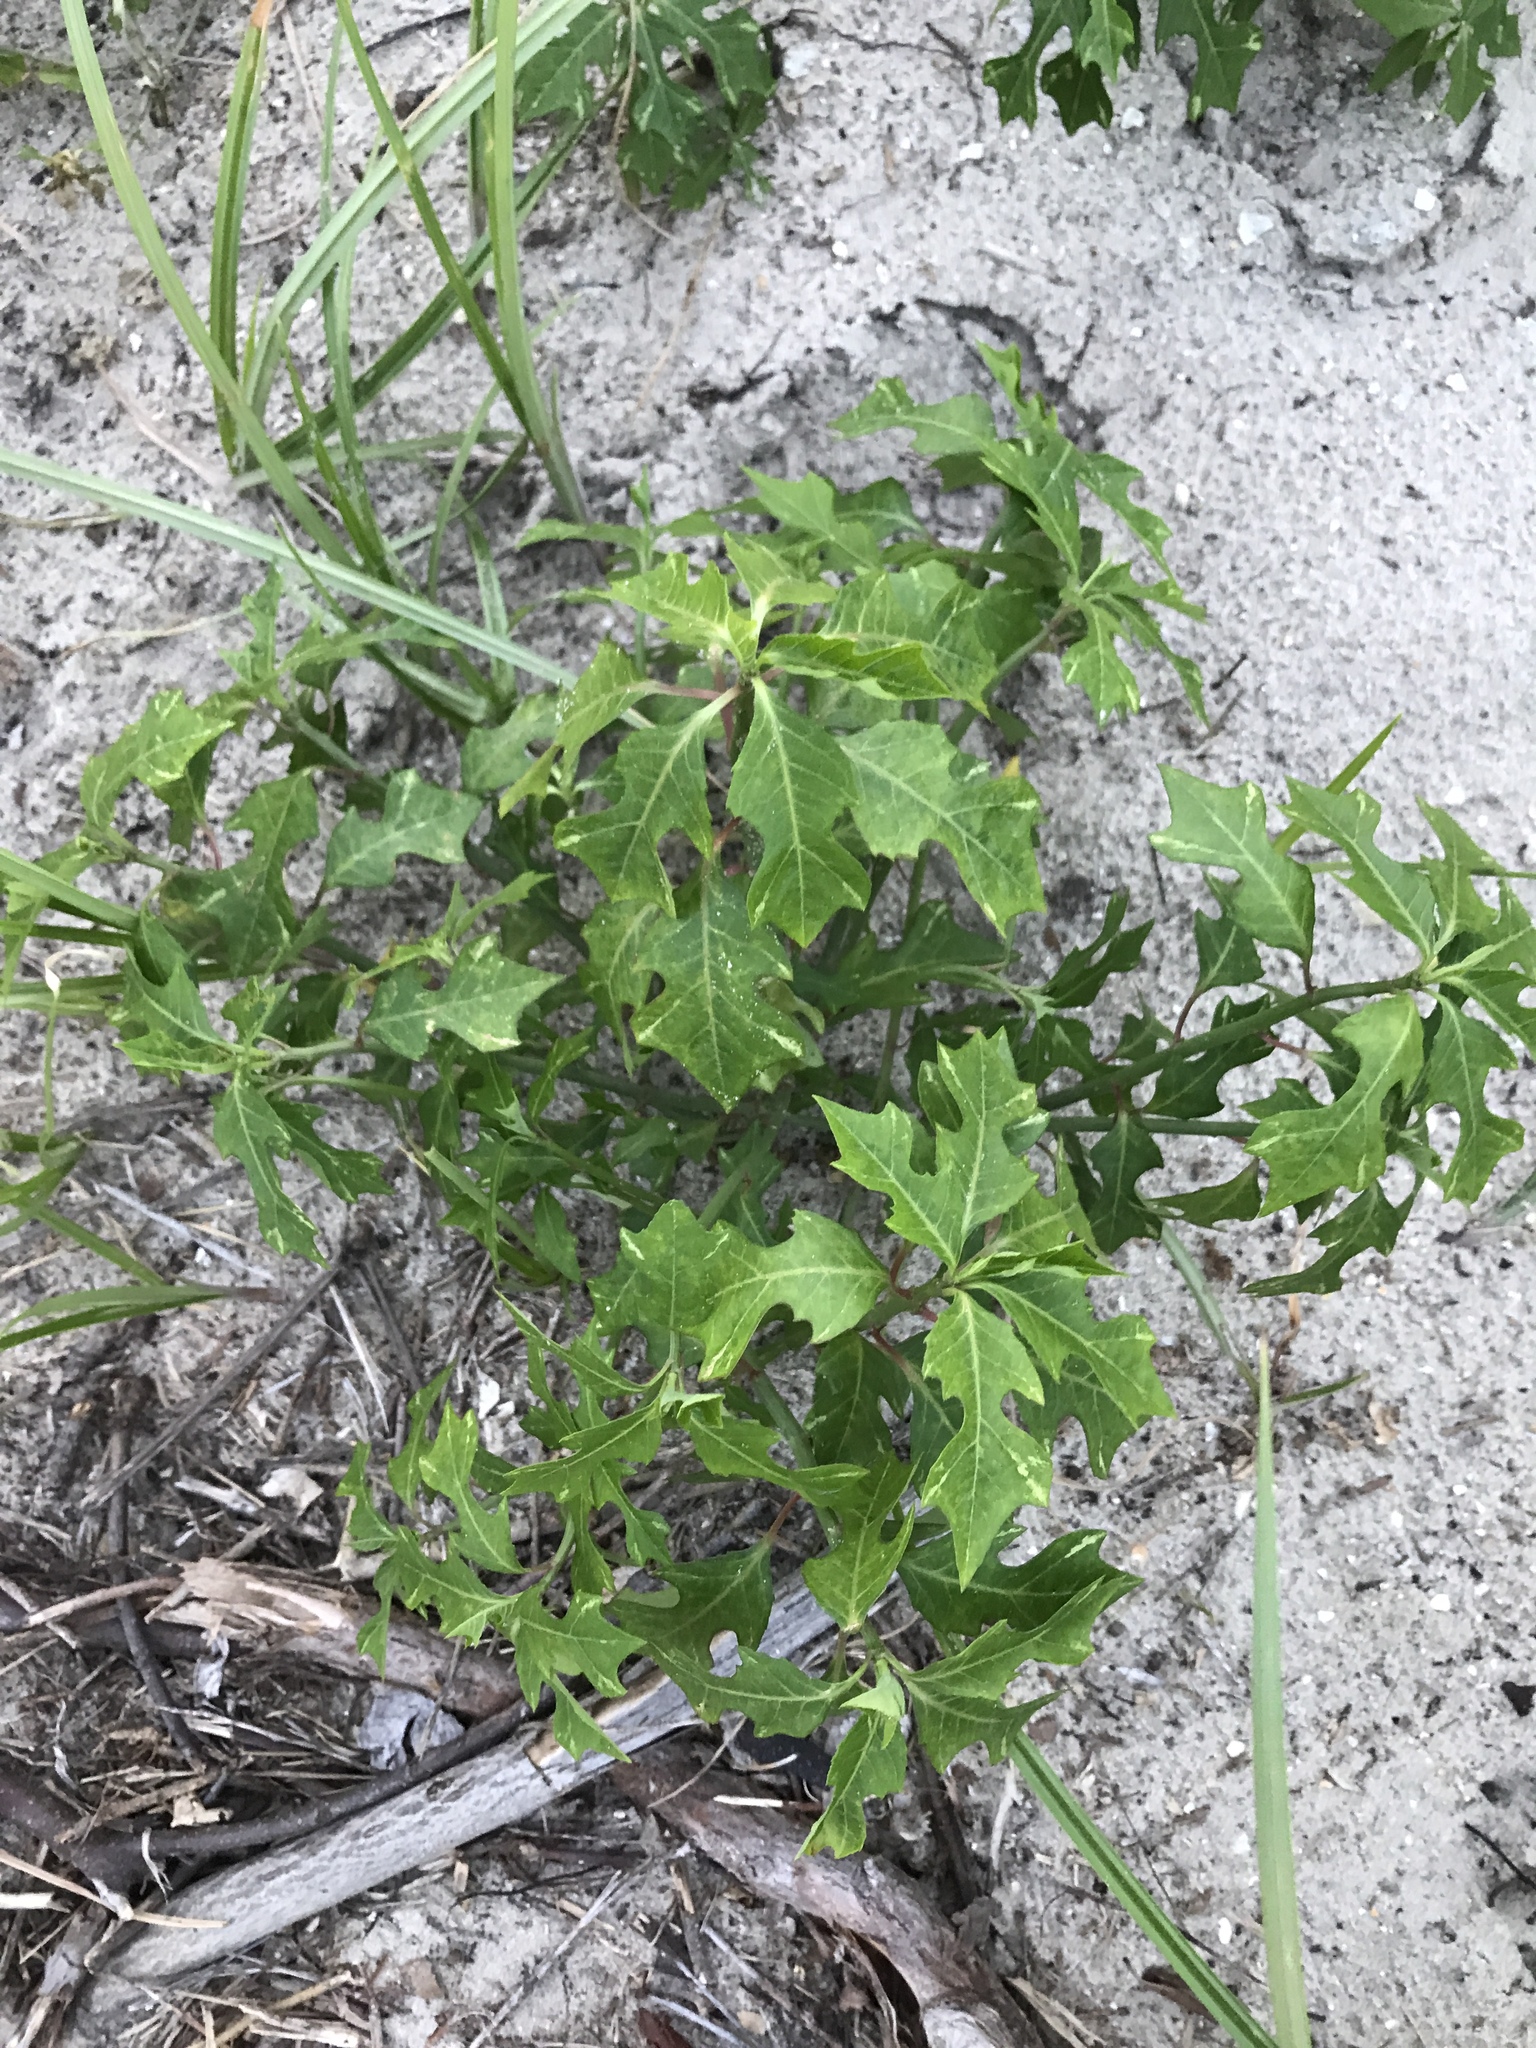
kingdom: Plantae
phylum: Tracheophyta
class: Magnoliopsida
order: Malpighiales
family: Euphorbiaceae
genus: Euphorbia
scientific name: Euphorbia heterophylla
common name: Mexican fireplant
